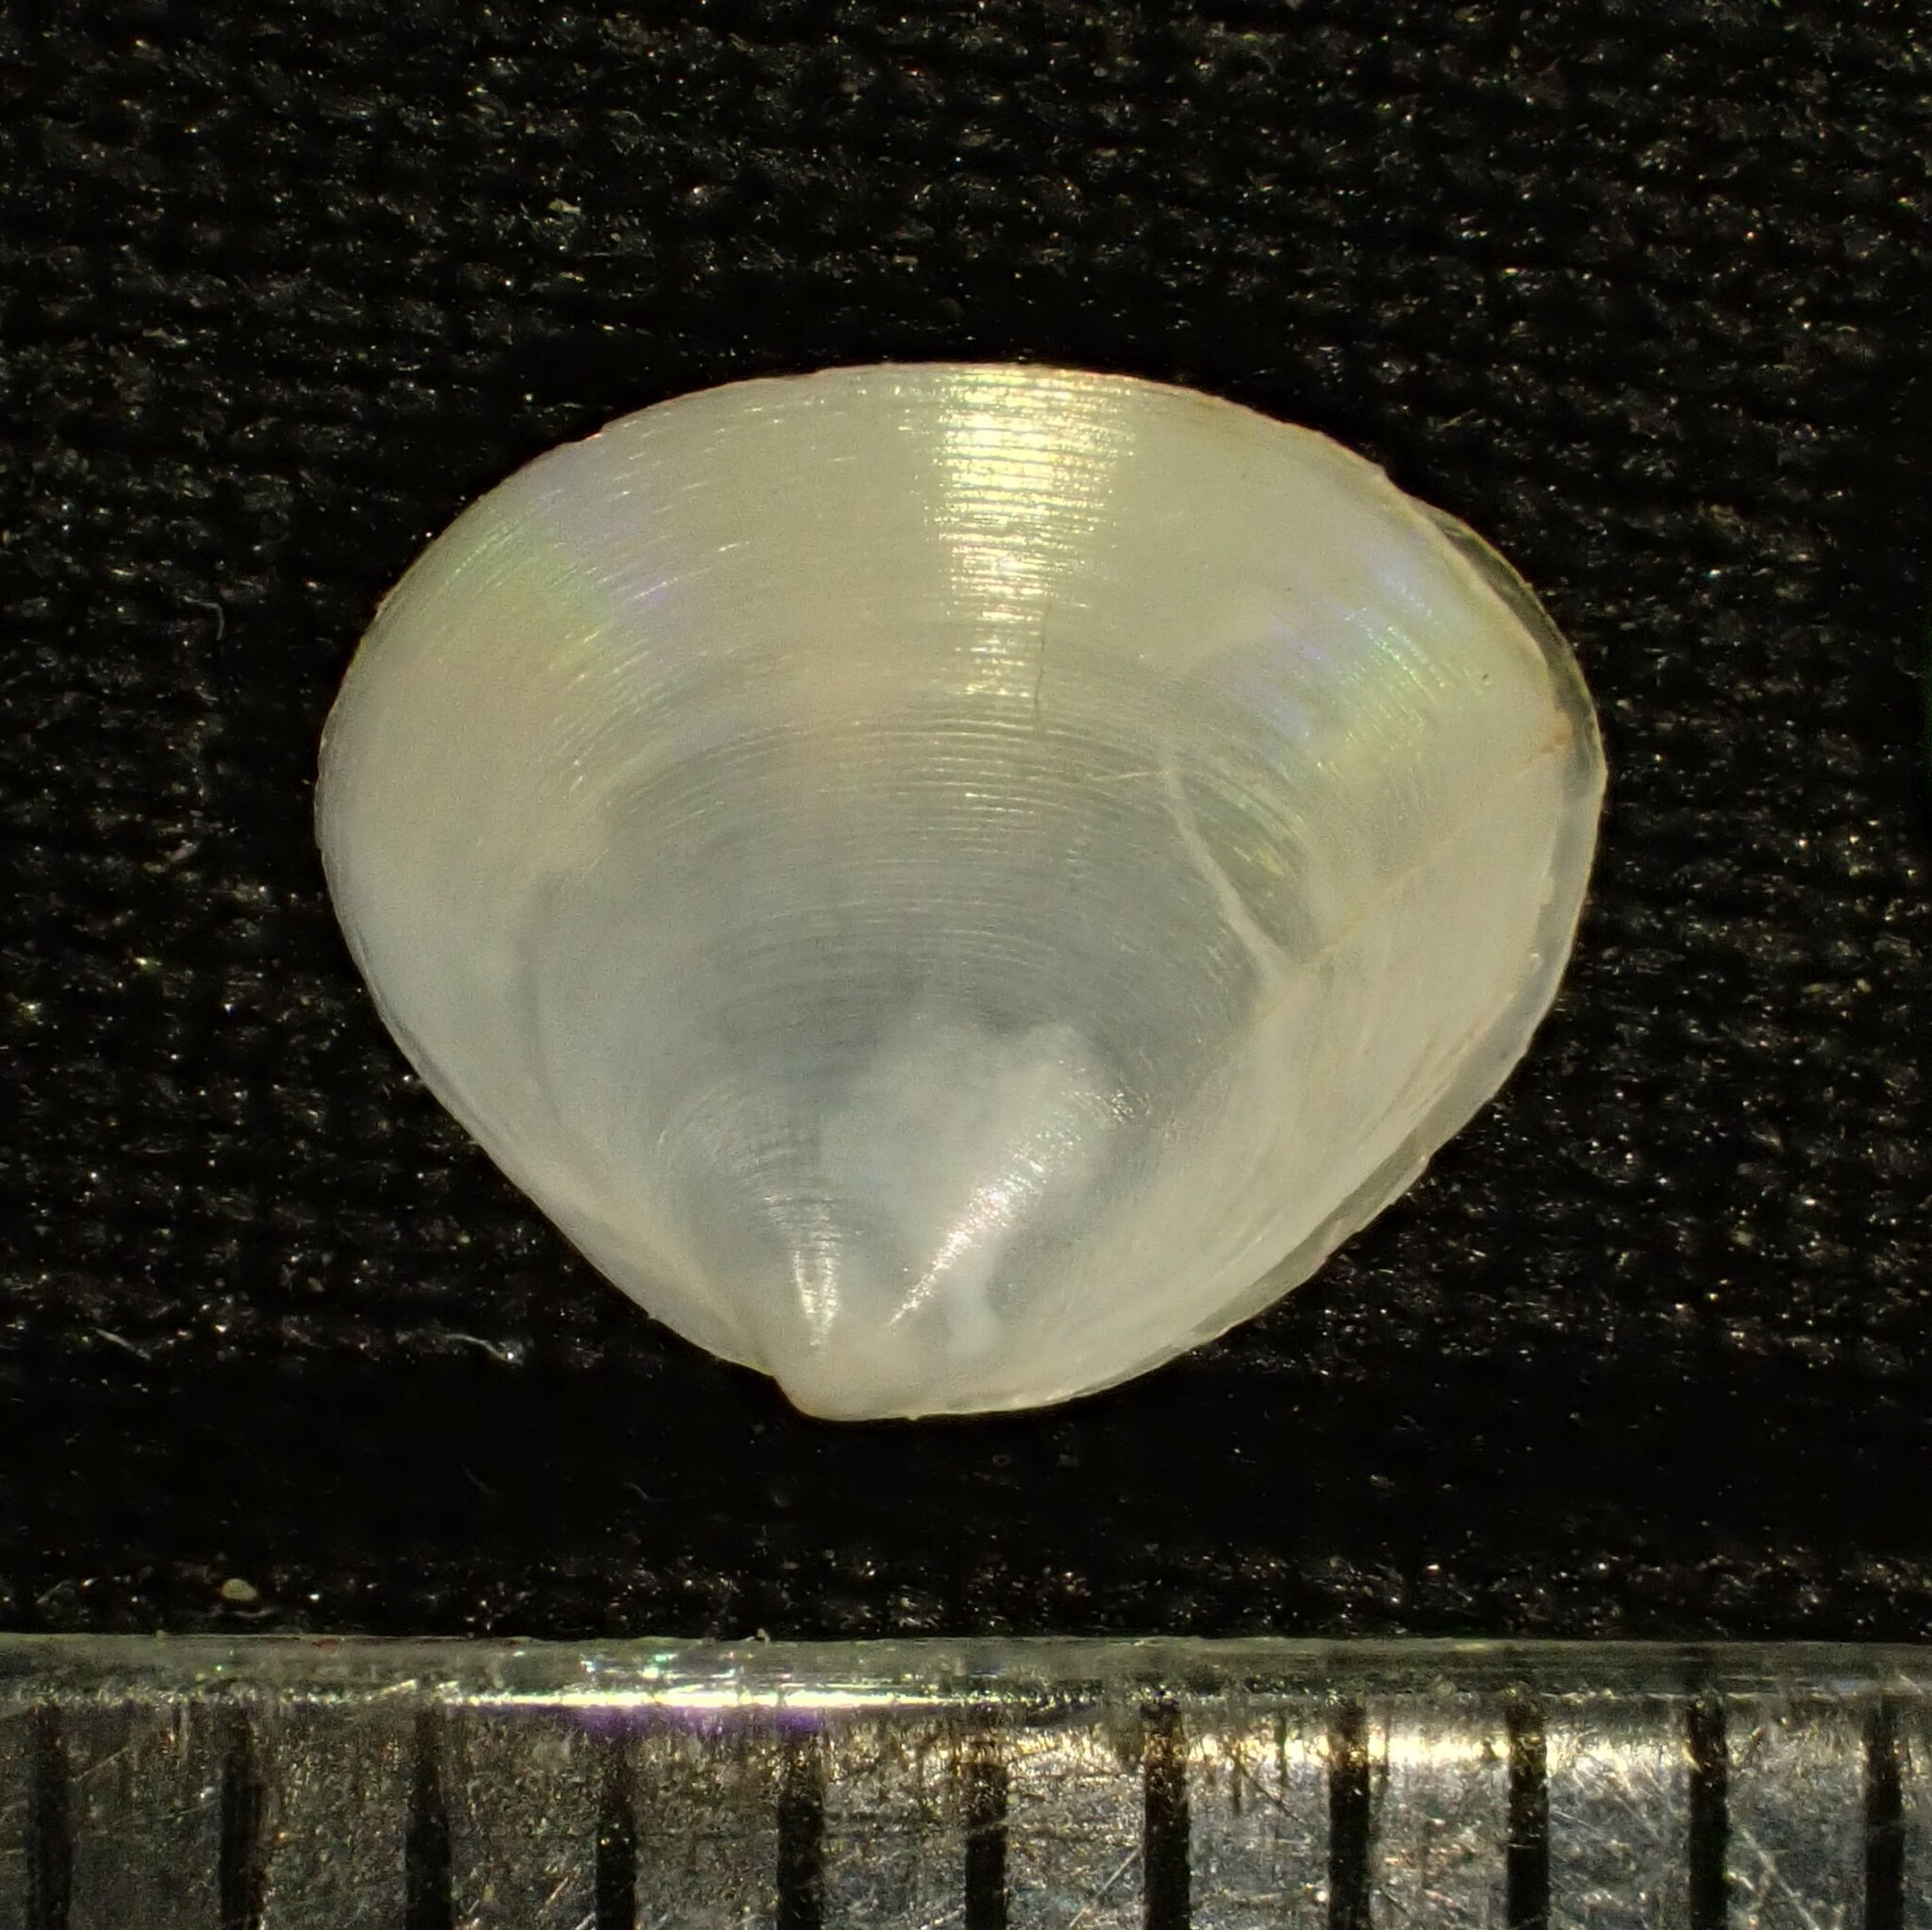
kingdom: Animalia
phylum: Mollusca
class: Bivalvia
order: Venerida
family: Mactridae
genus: Spisula
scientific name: Spisula discors
